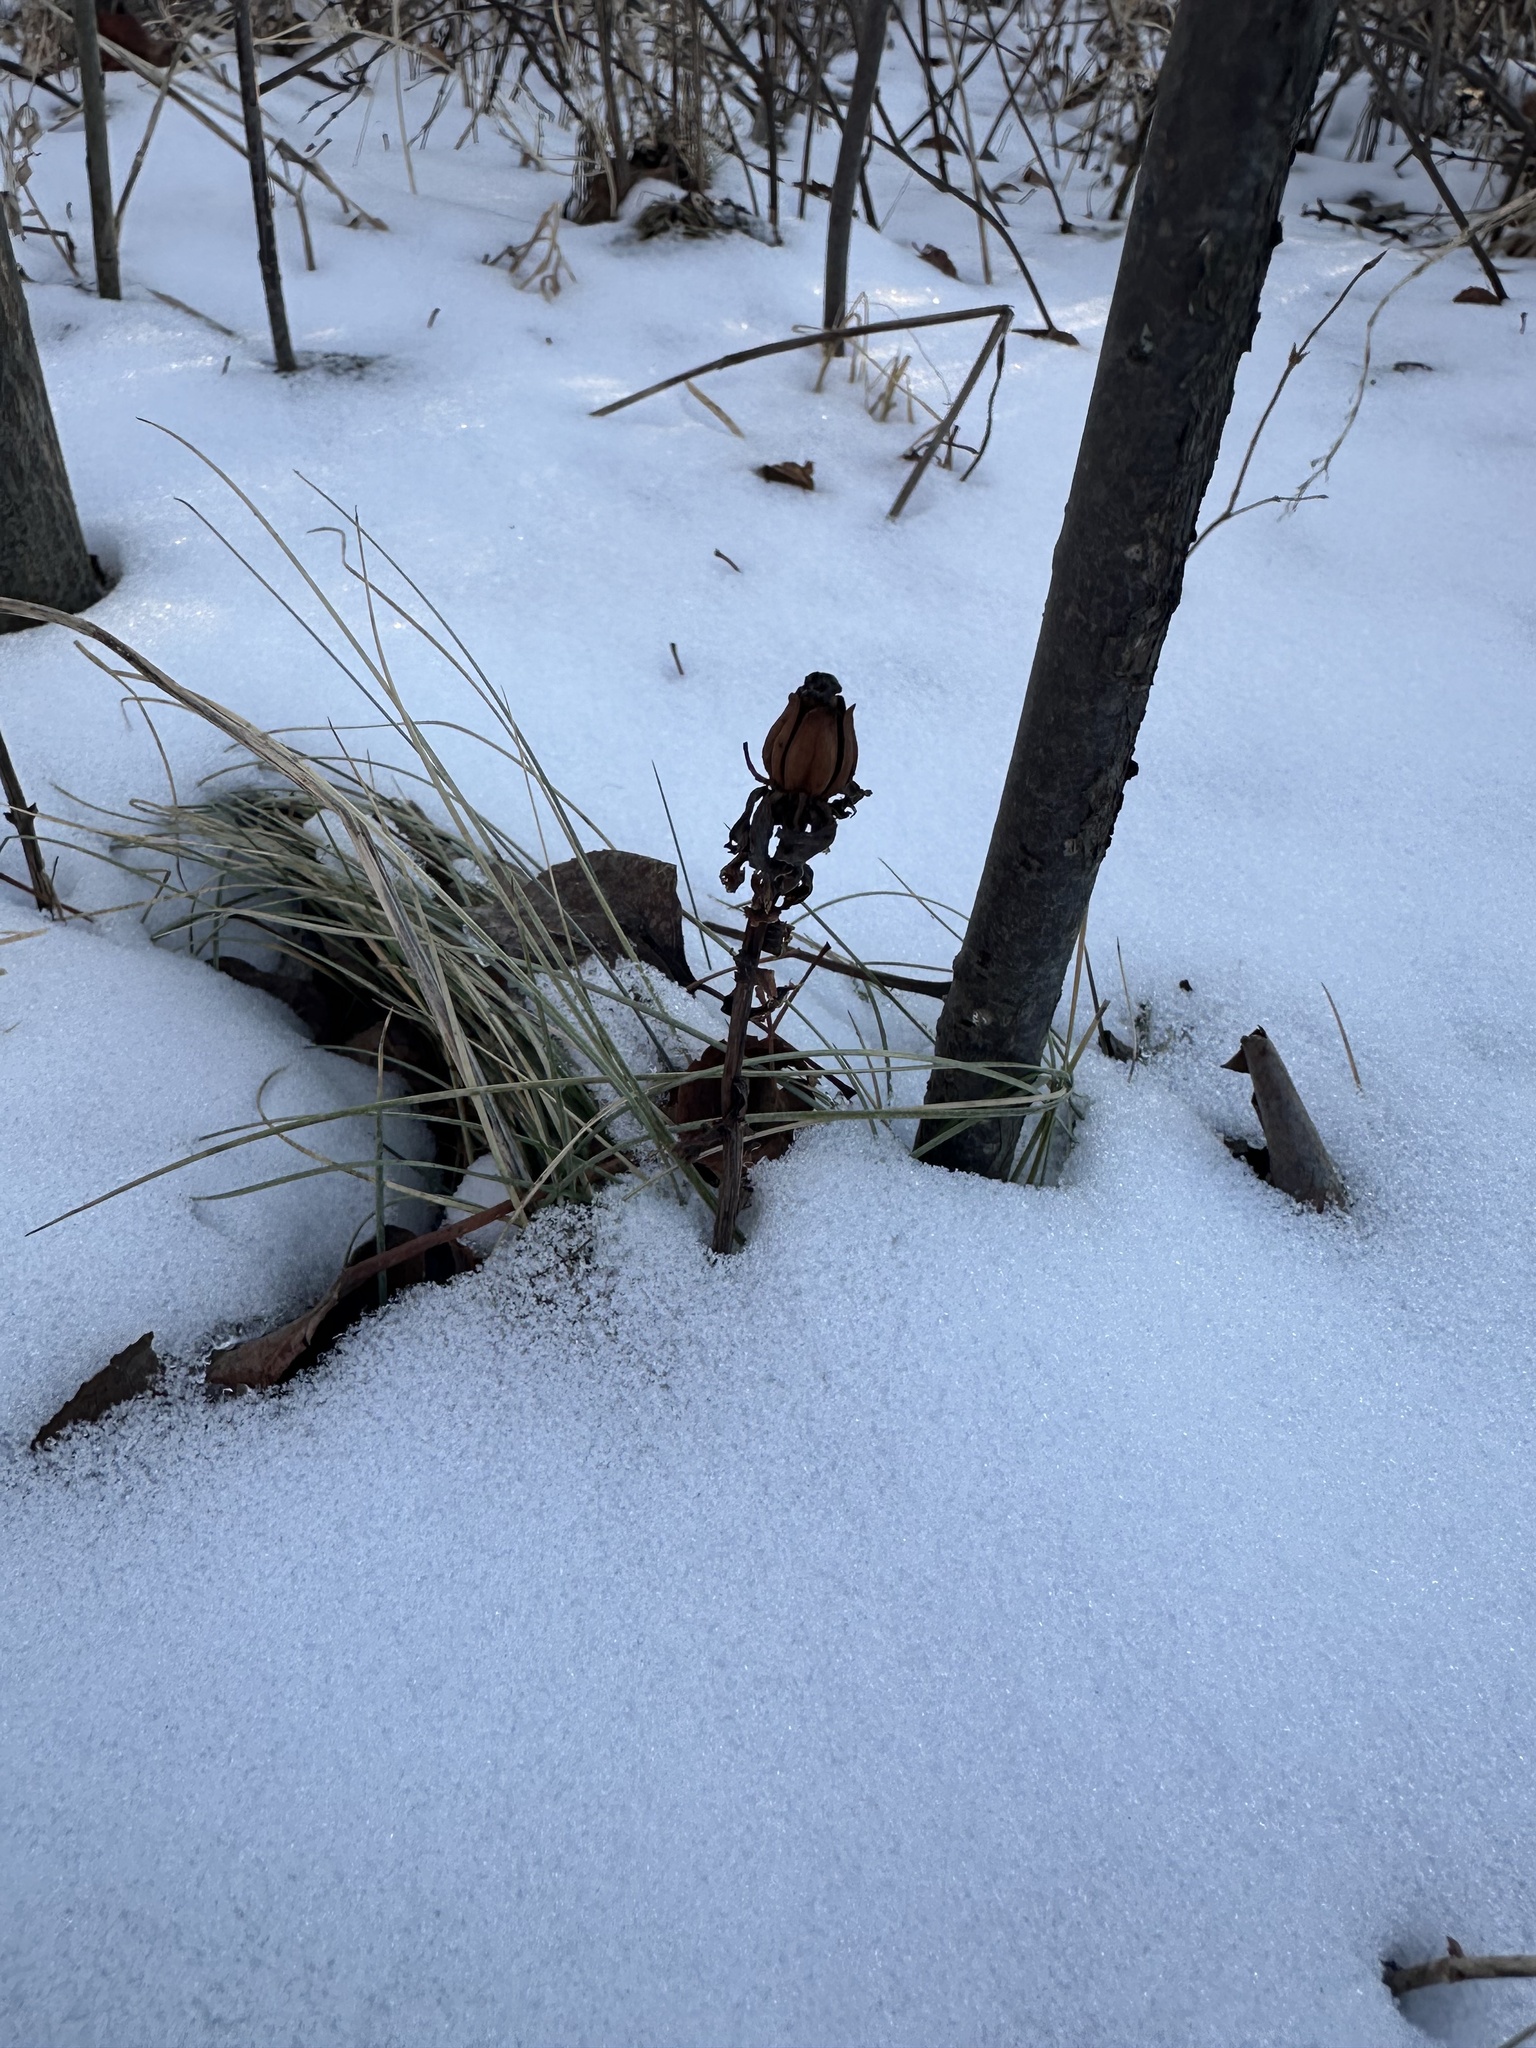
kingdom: Plantae
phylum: Tracheophyta
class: Magnoliopsida
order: Ericales
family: Ericaceae
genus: Monotropa
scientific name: Monotropa uniflora
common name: Convulsion root
